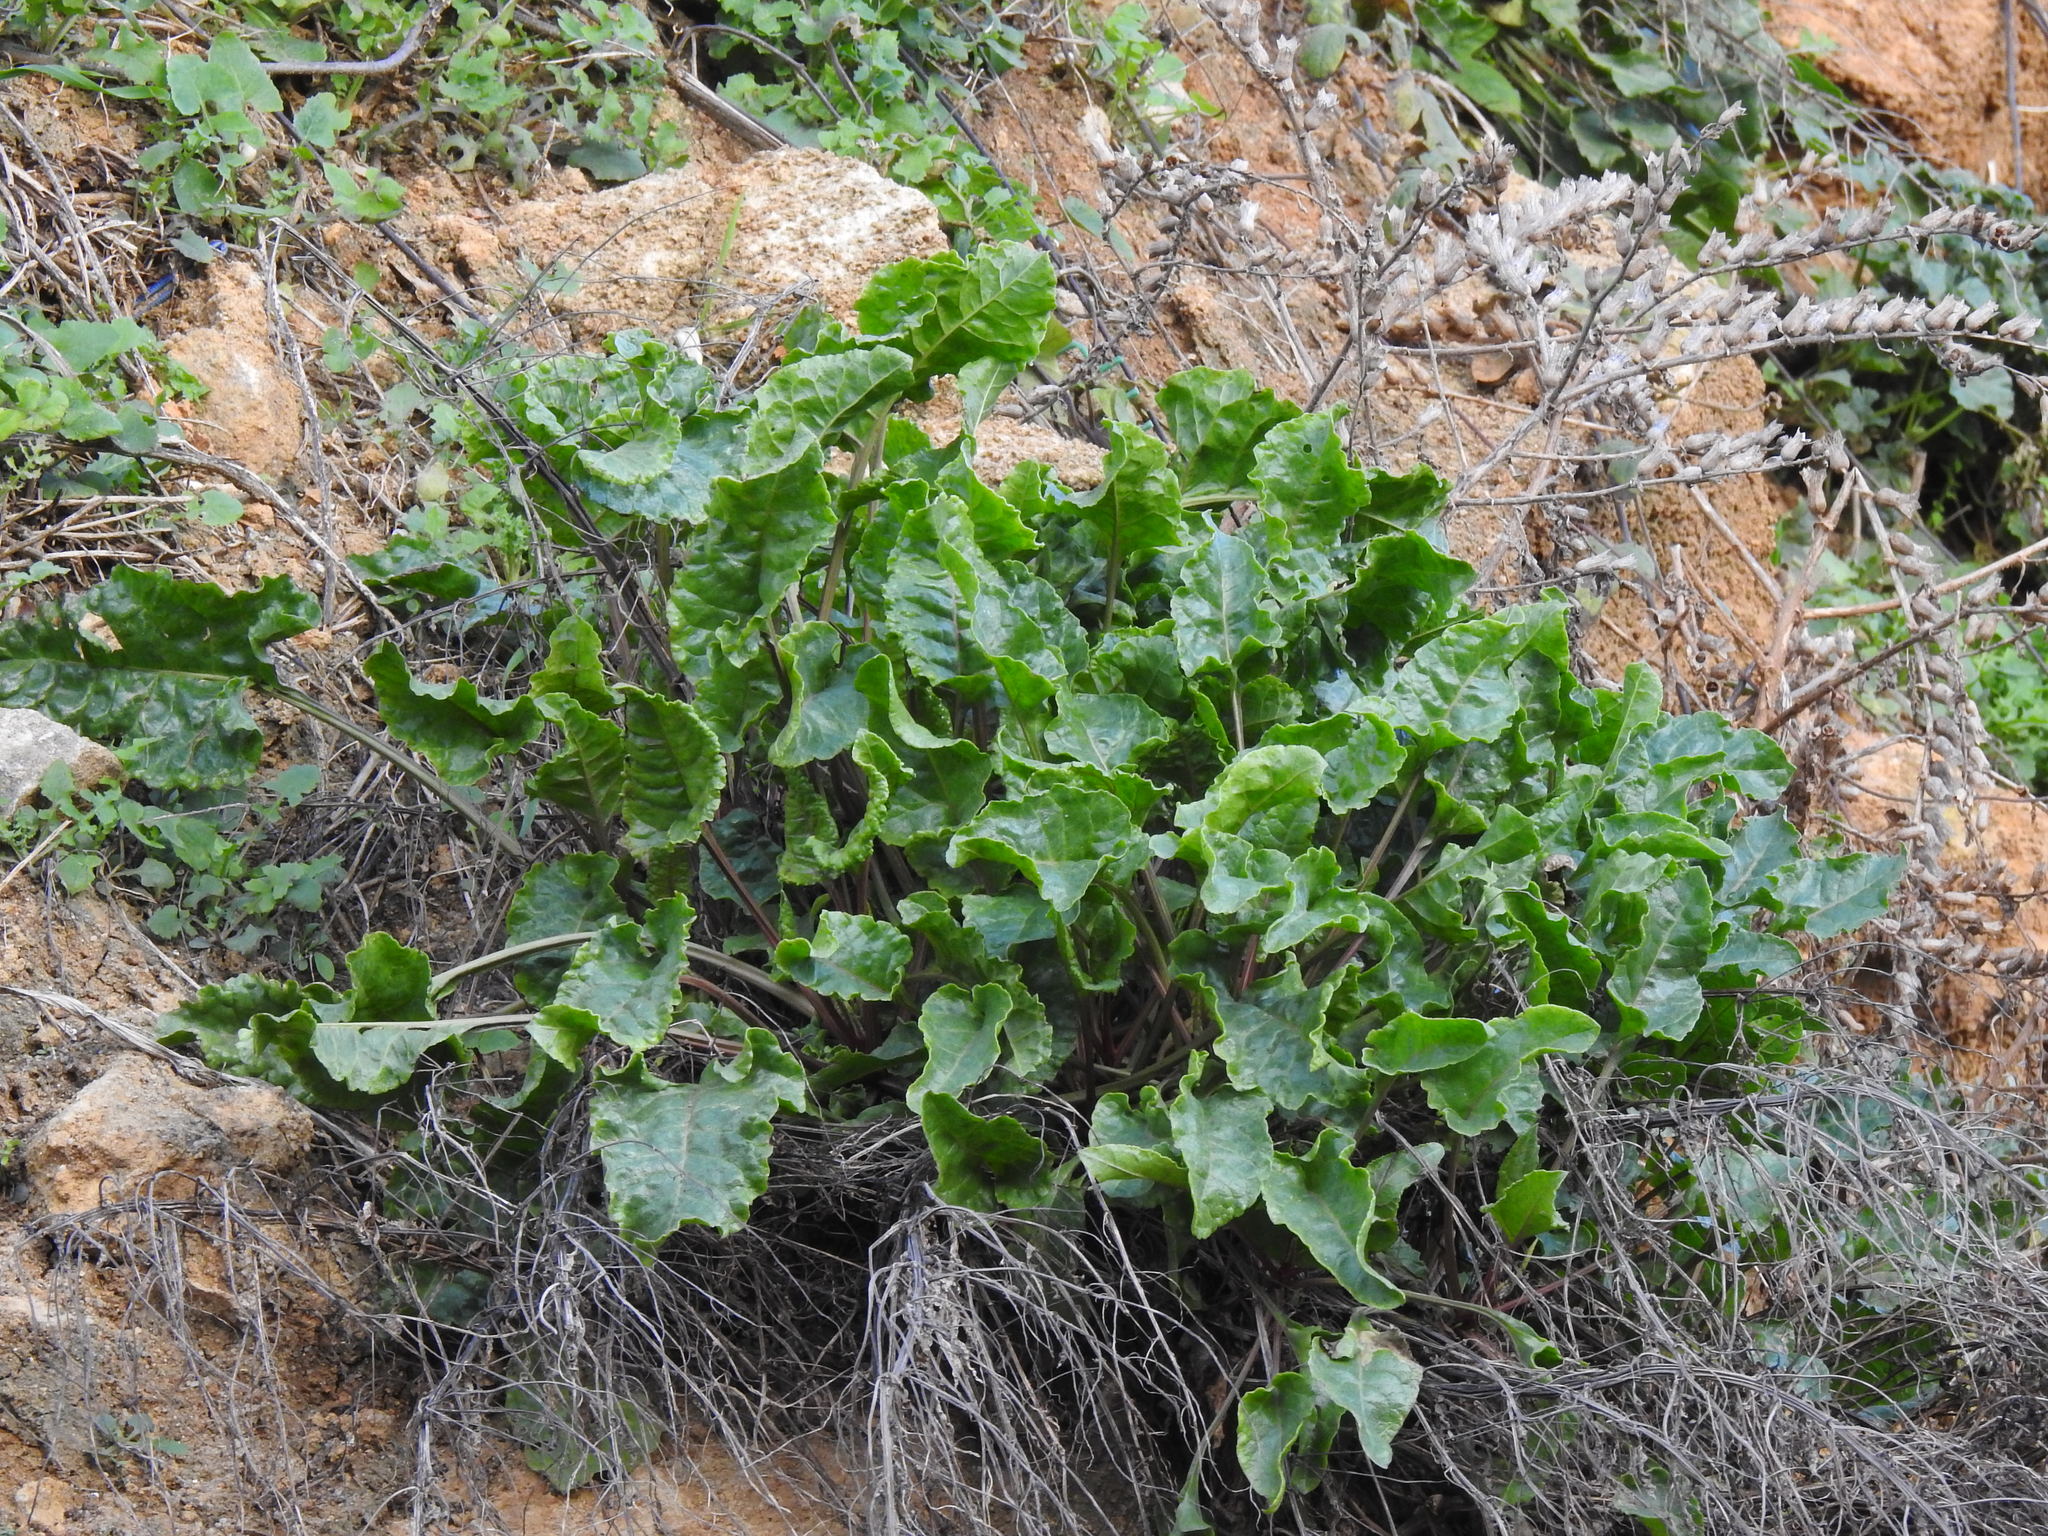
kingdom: Plantae
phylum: Tracheophyta
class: Magnoliopsida
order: Caryophyllales
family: Amaranthaceae
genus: Beta
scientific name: Beta vulgaris
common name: Beet
